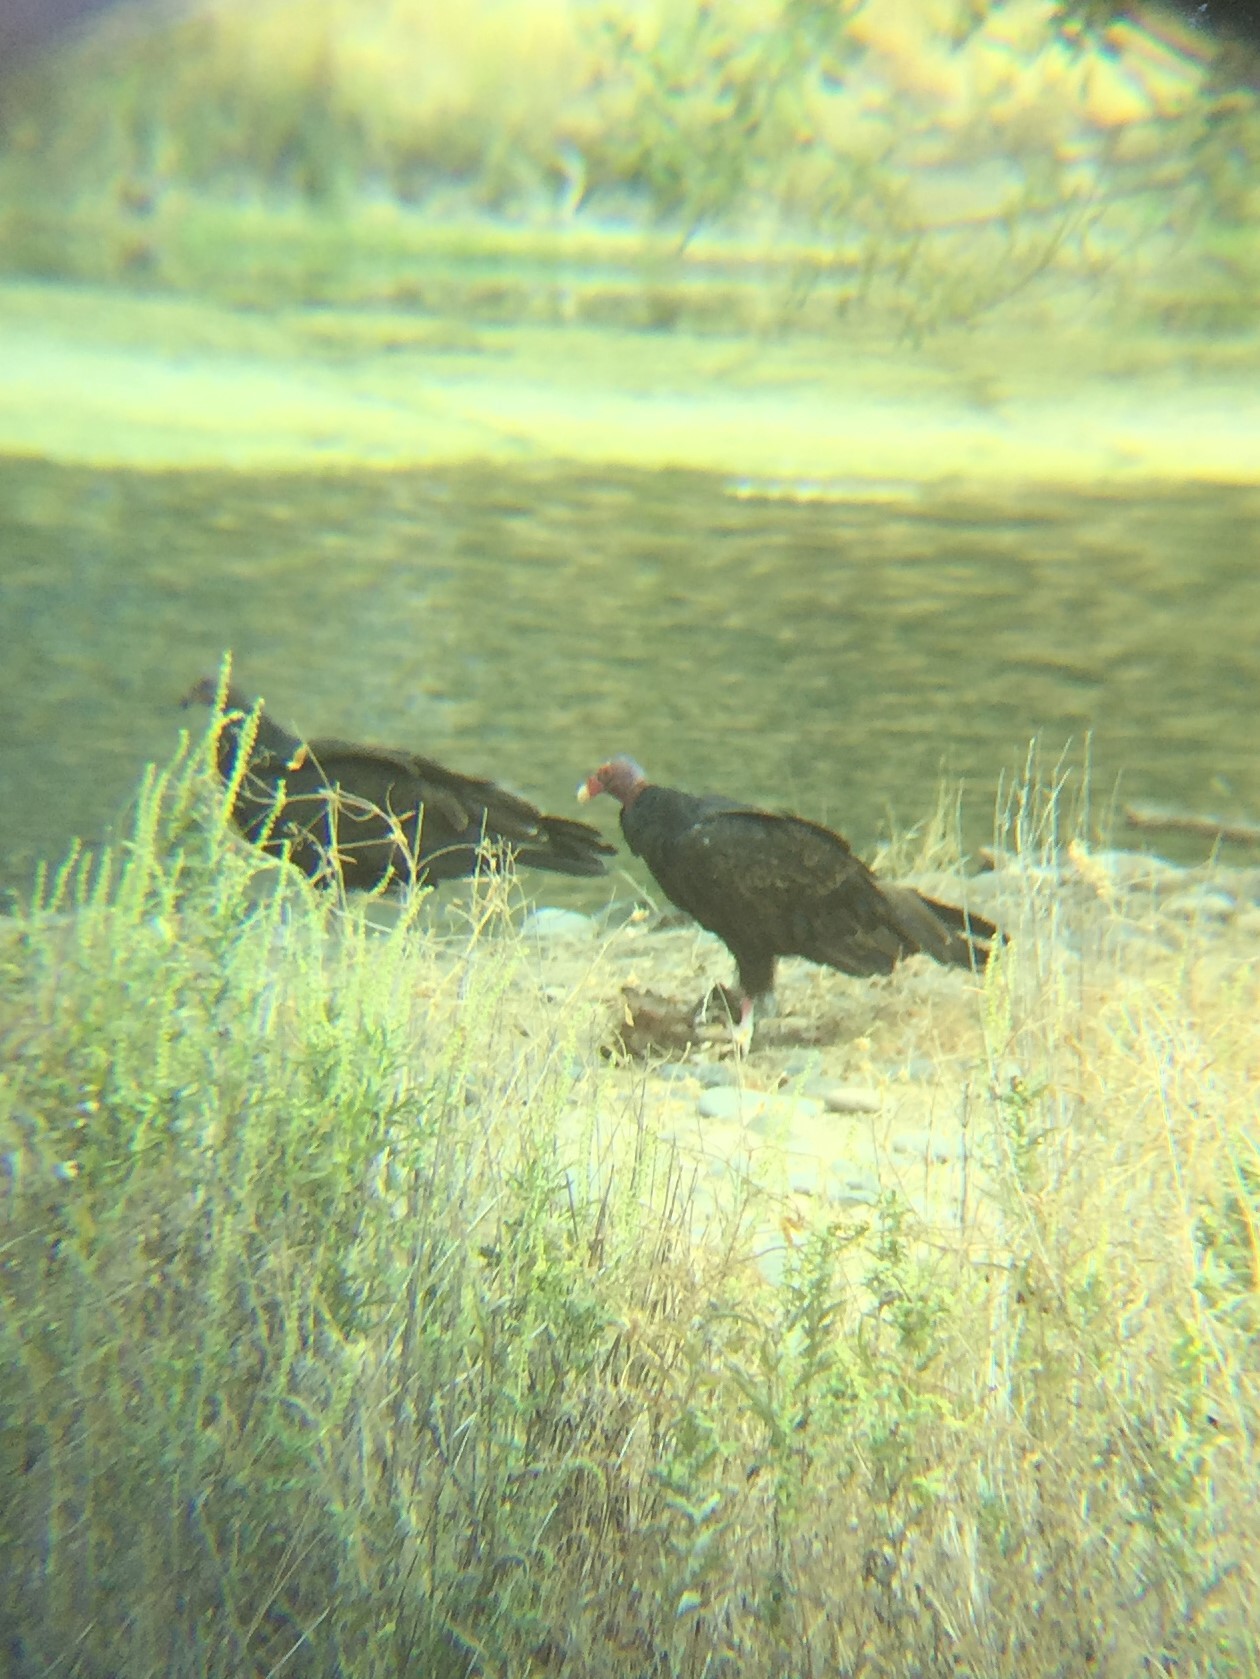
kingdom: Animalia
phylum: Chordata
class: Aves
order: Accipitriformes
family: Cathartidae
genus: Cathartes
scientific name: Cathartes aura
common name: Turkey vulture
